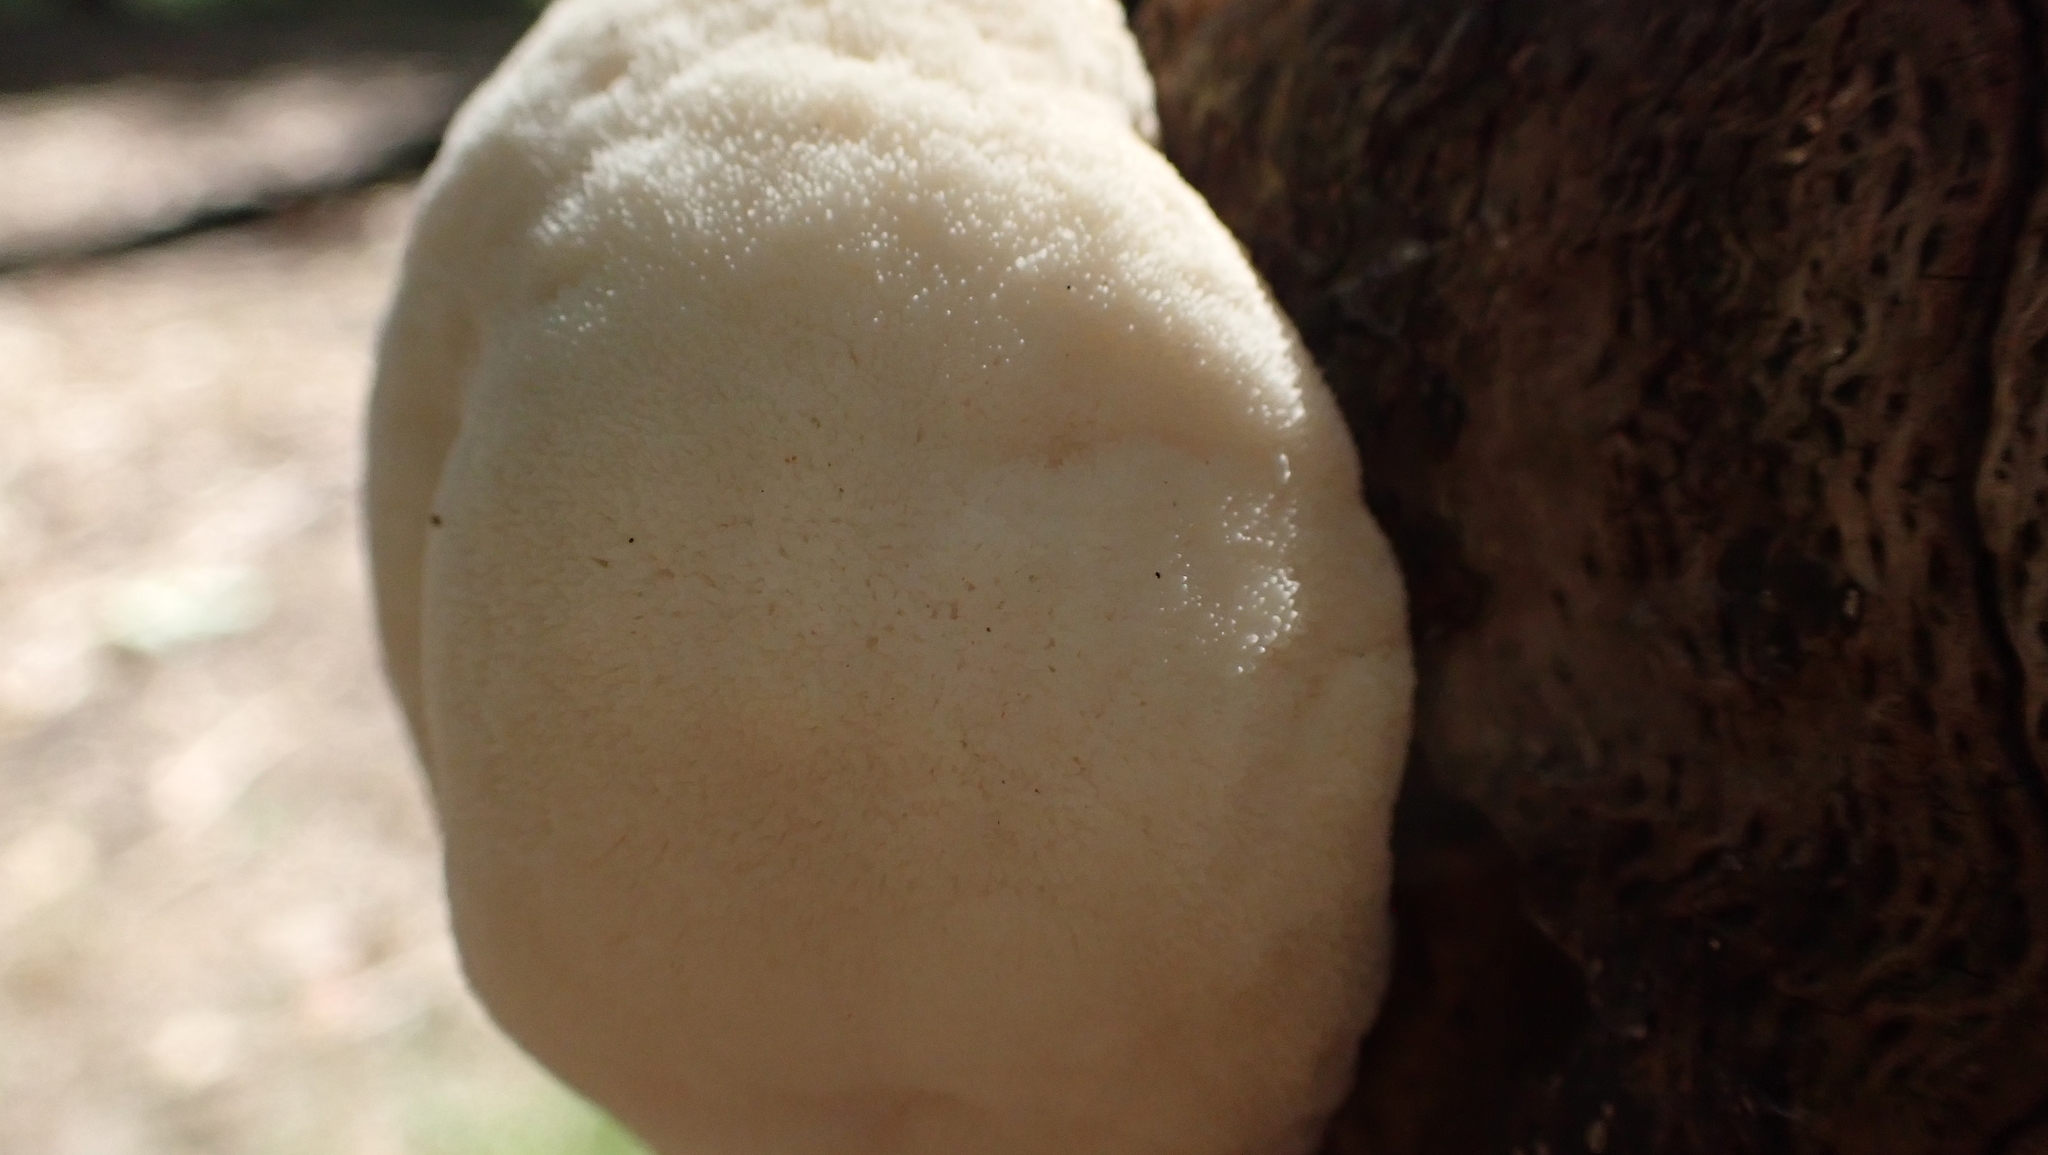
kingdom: Fungi
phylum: Basidiomycota
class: Agaricomycetes
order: Russulales
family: Hericiaceae
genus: Hericium
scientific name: Hericium erinaceus
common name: Bearded tooth
